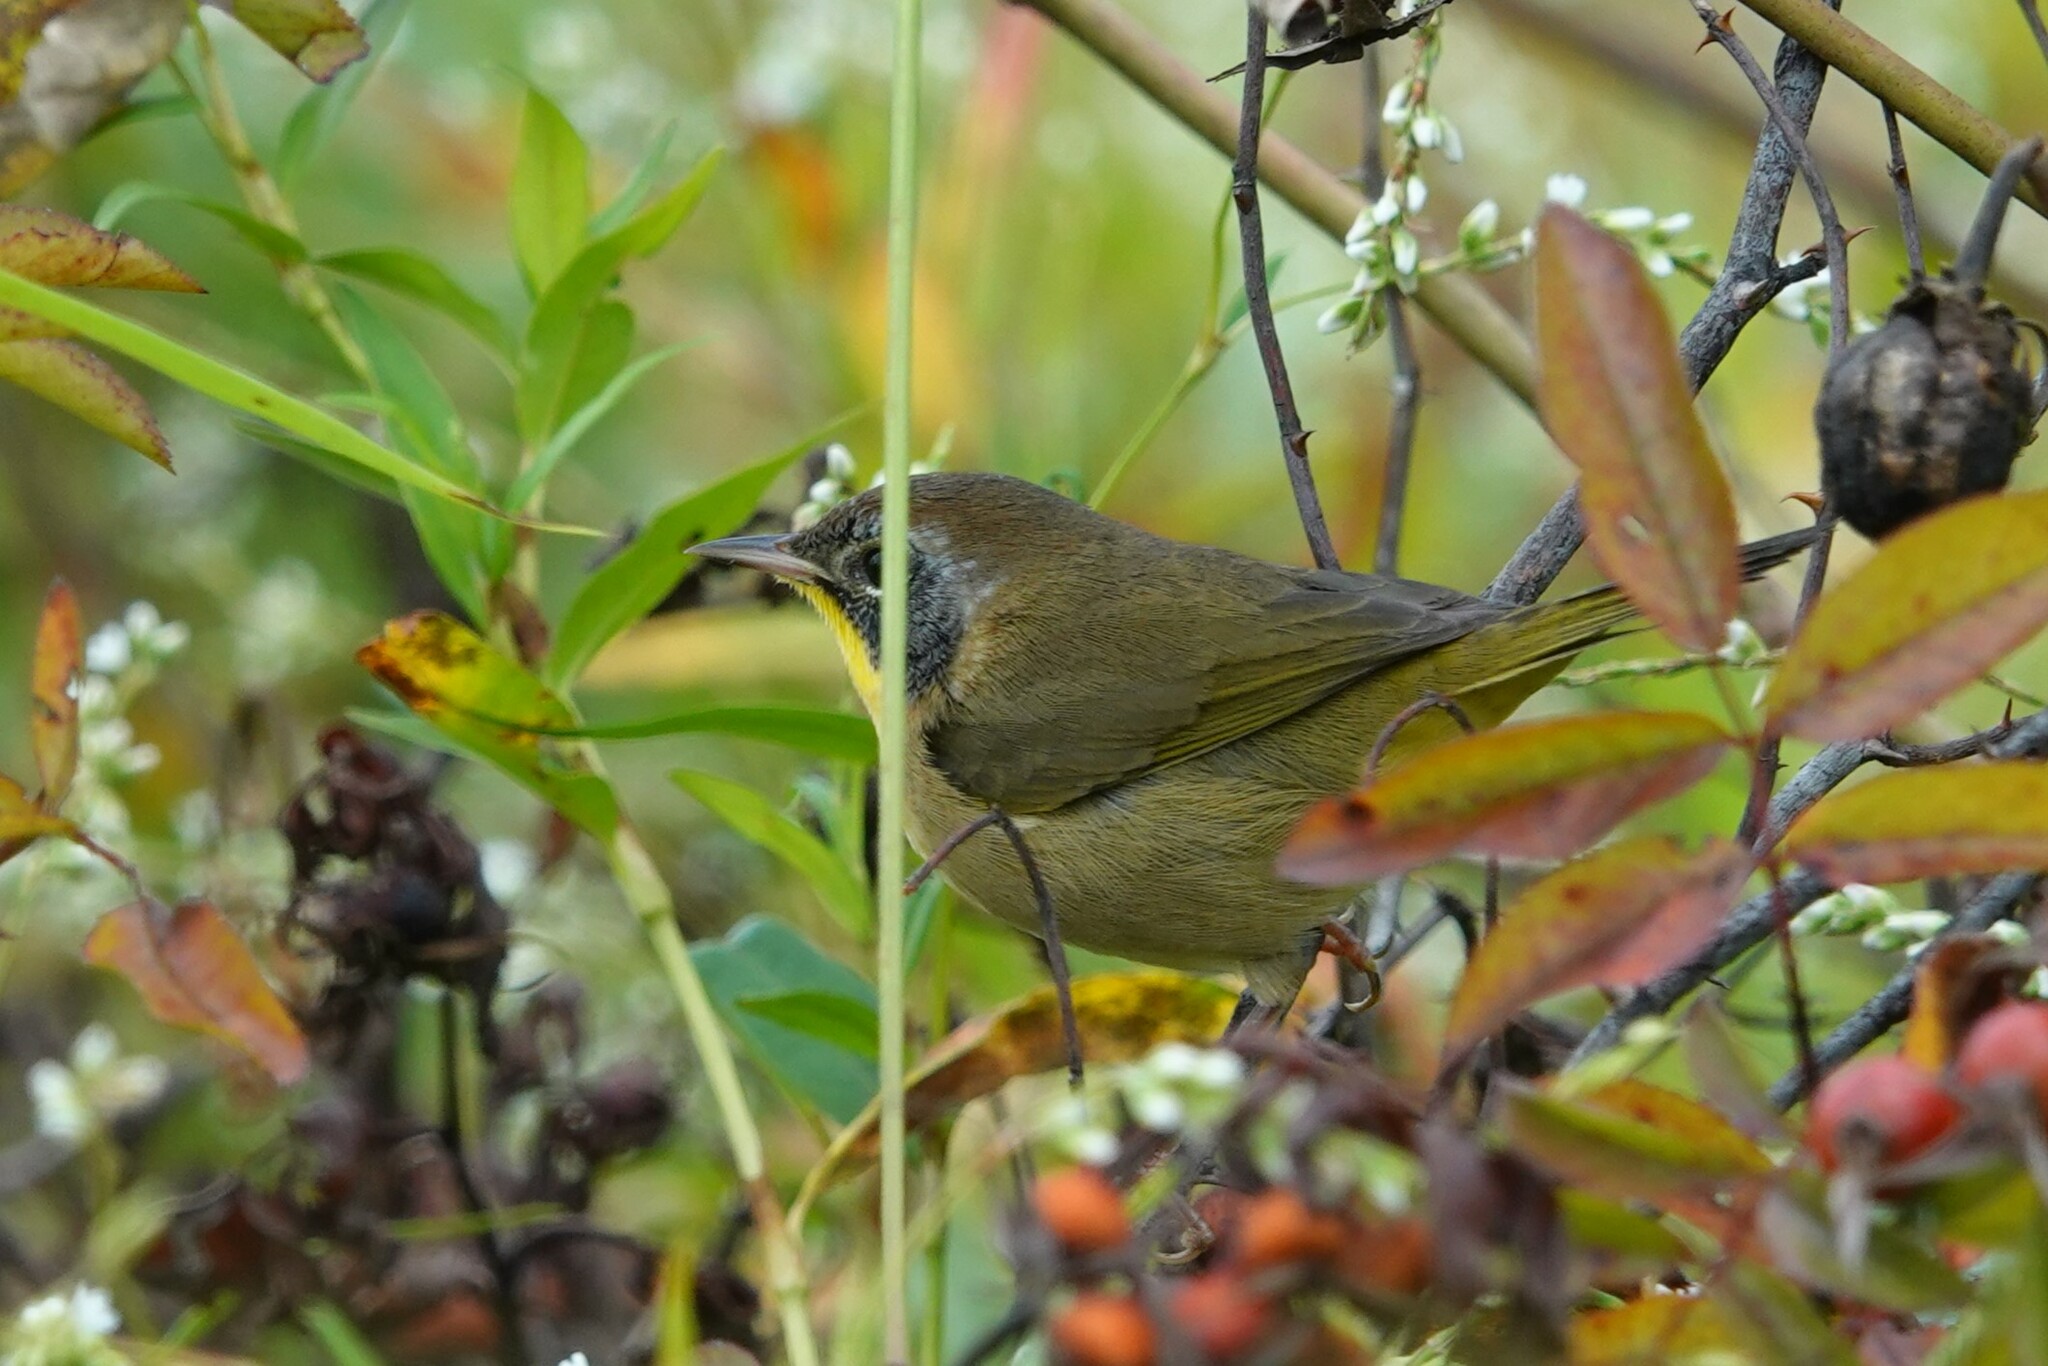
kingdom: Animalia
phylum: Chordata
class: Aves
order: Passeriformes
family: Parulidae
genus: Geothlypis
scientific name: Geothlypis trichas
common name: Common yellowthroat
